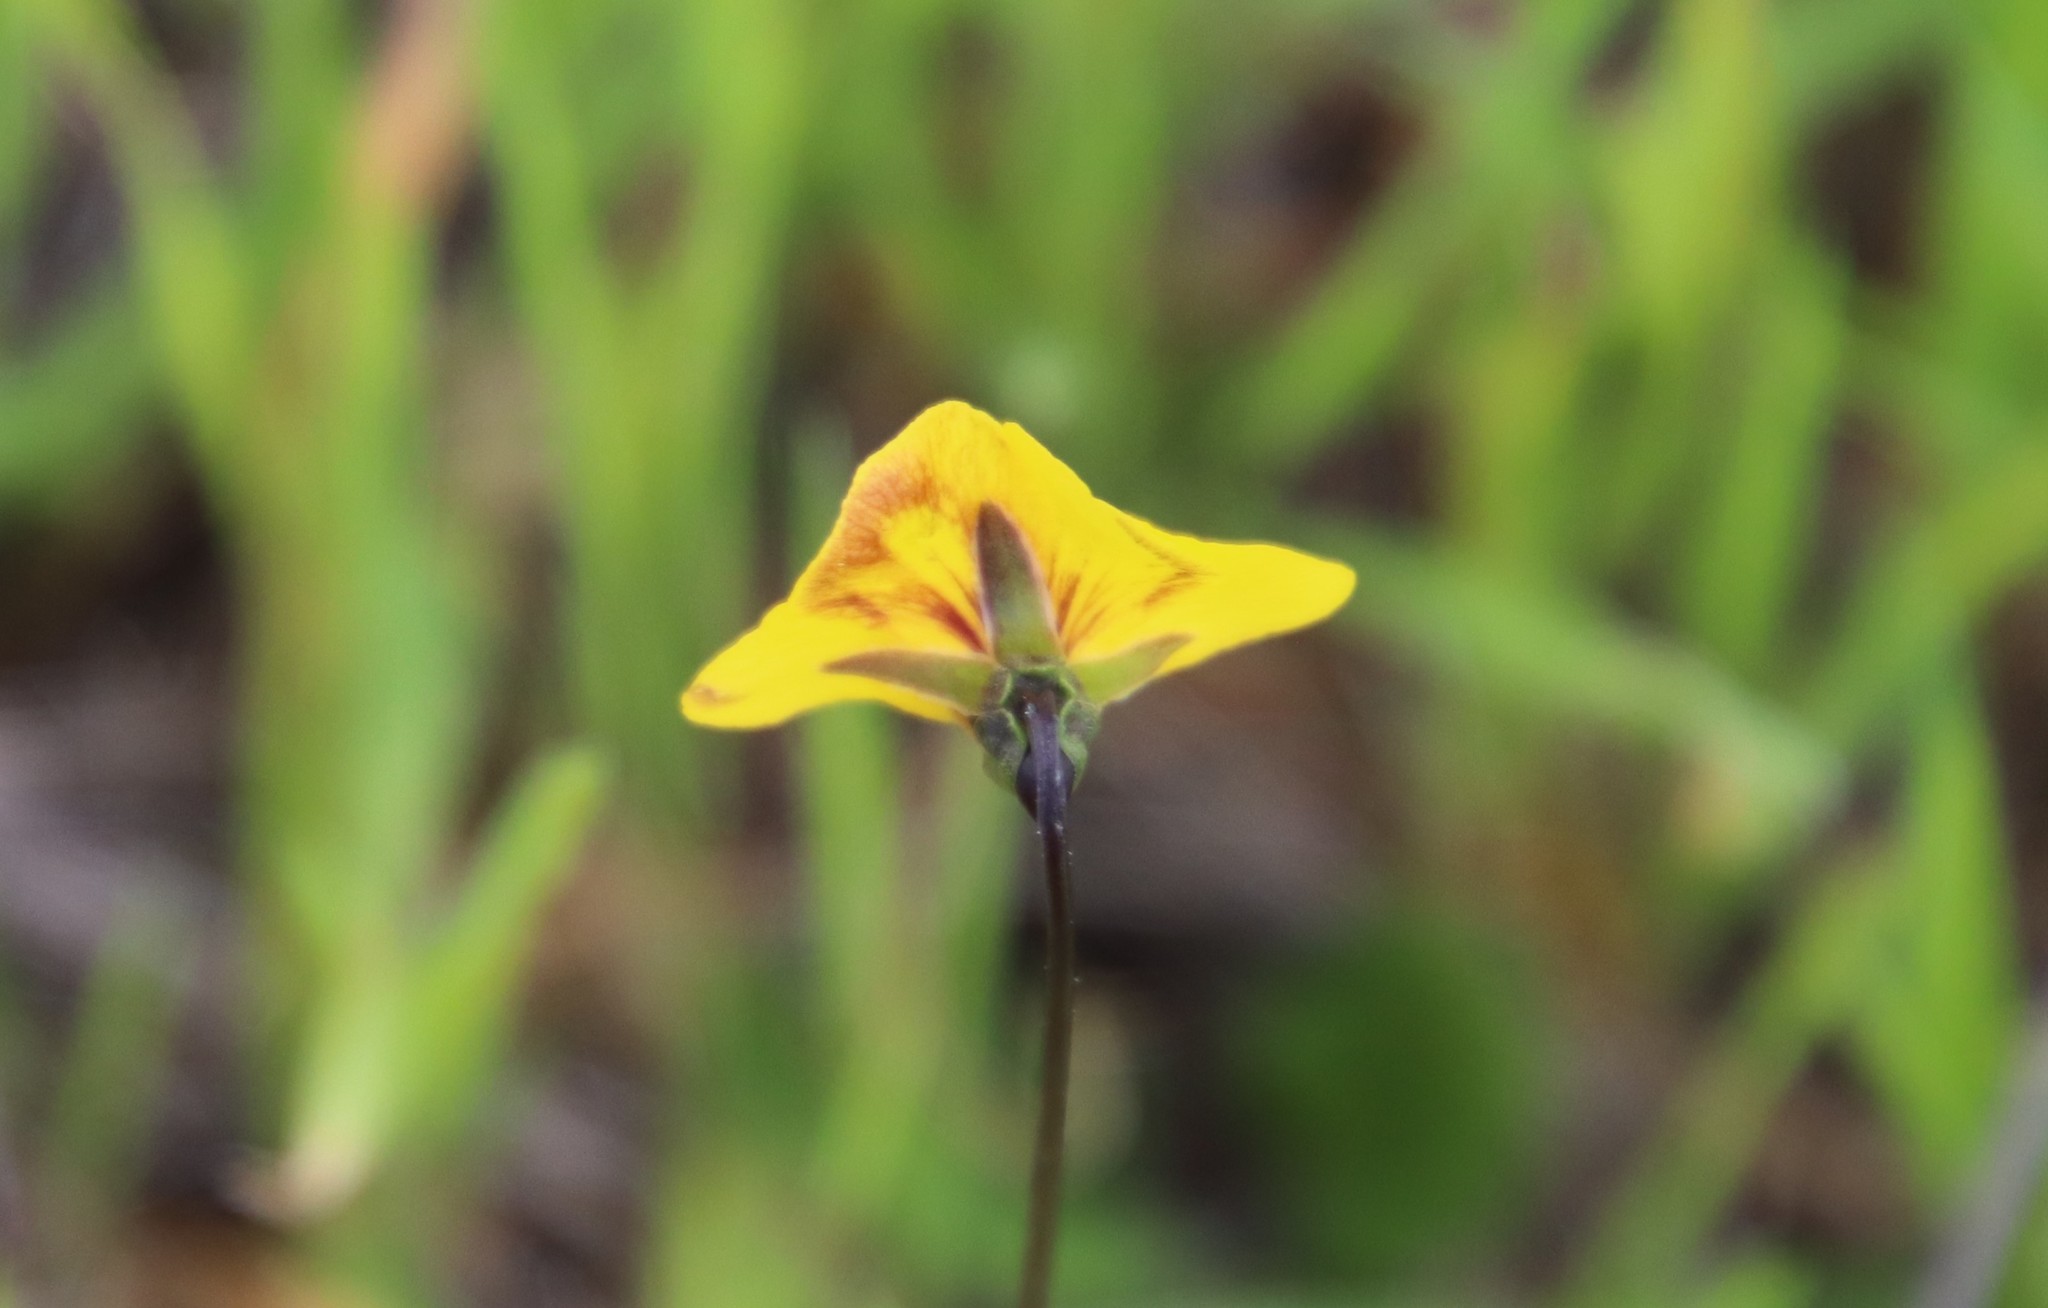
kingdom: Plantae
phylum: Tracheophyta
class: Magnoliopsida
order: Malpighiales
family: Violaceae
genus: Viola
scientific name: Viola pedunculata
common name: California golden violet
